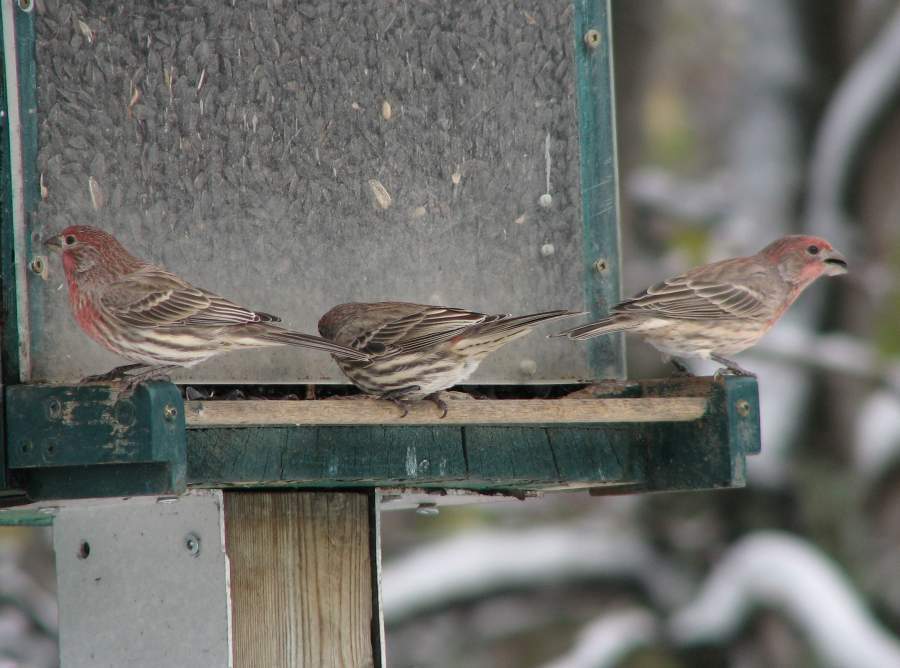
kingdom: Animalia
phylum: Chordata
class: Aves
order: Passeriformes
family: Fringillidae
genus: Haemorhous
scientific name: Haemorhous mexicanus
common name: House finch
